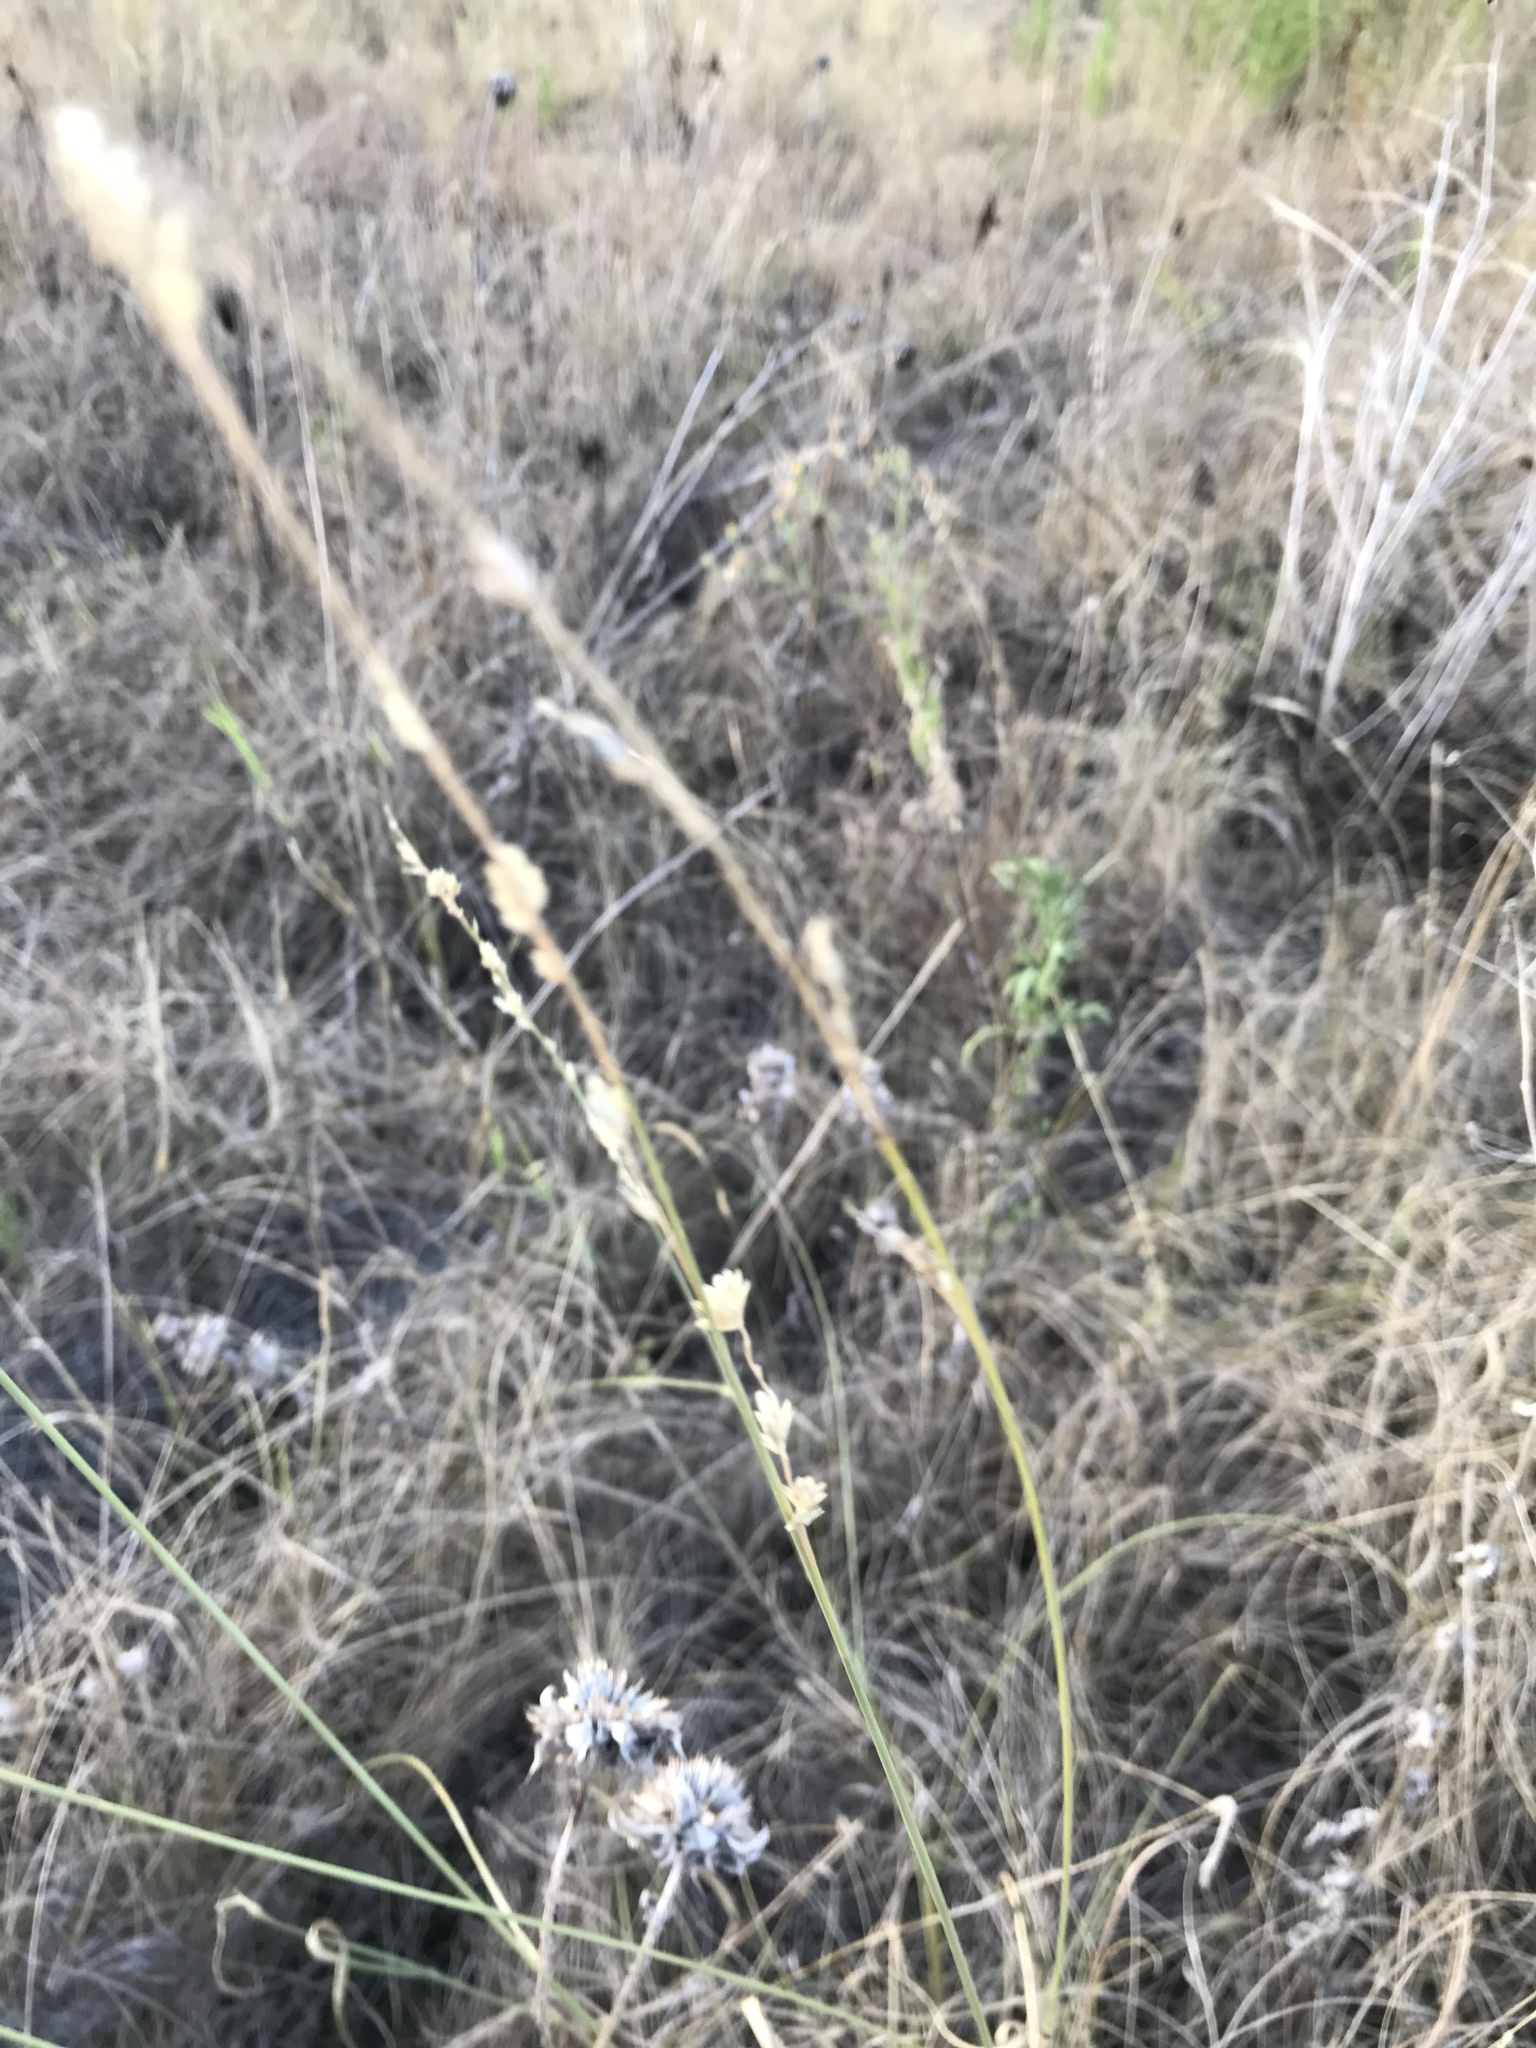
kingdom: Plantae
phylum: Tracheophyta
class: Liliopsida
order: Poales
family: Poaceae
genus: Eragrostis
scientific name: Eragrostis superba
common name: Wilman lovegrass
